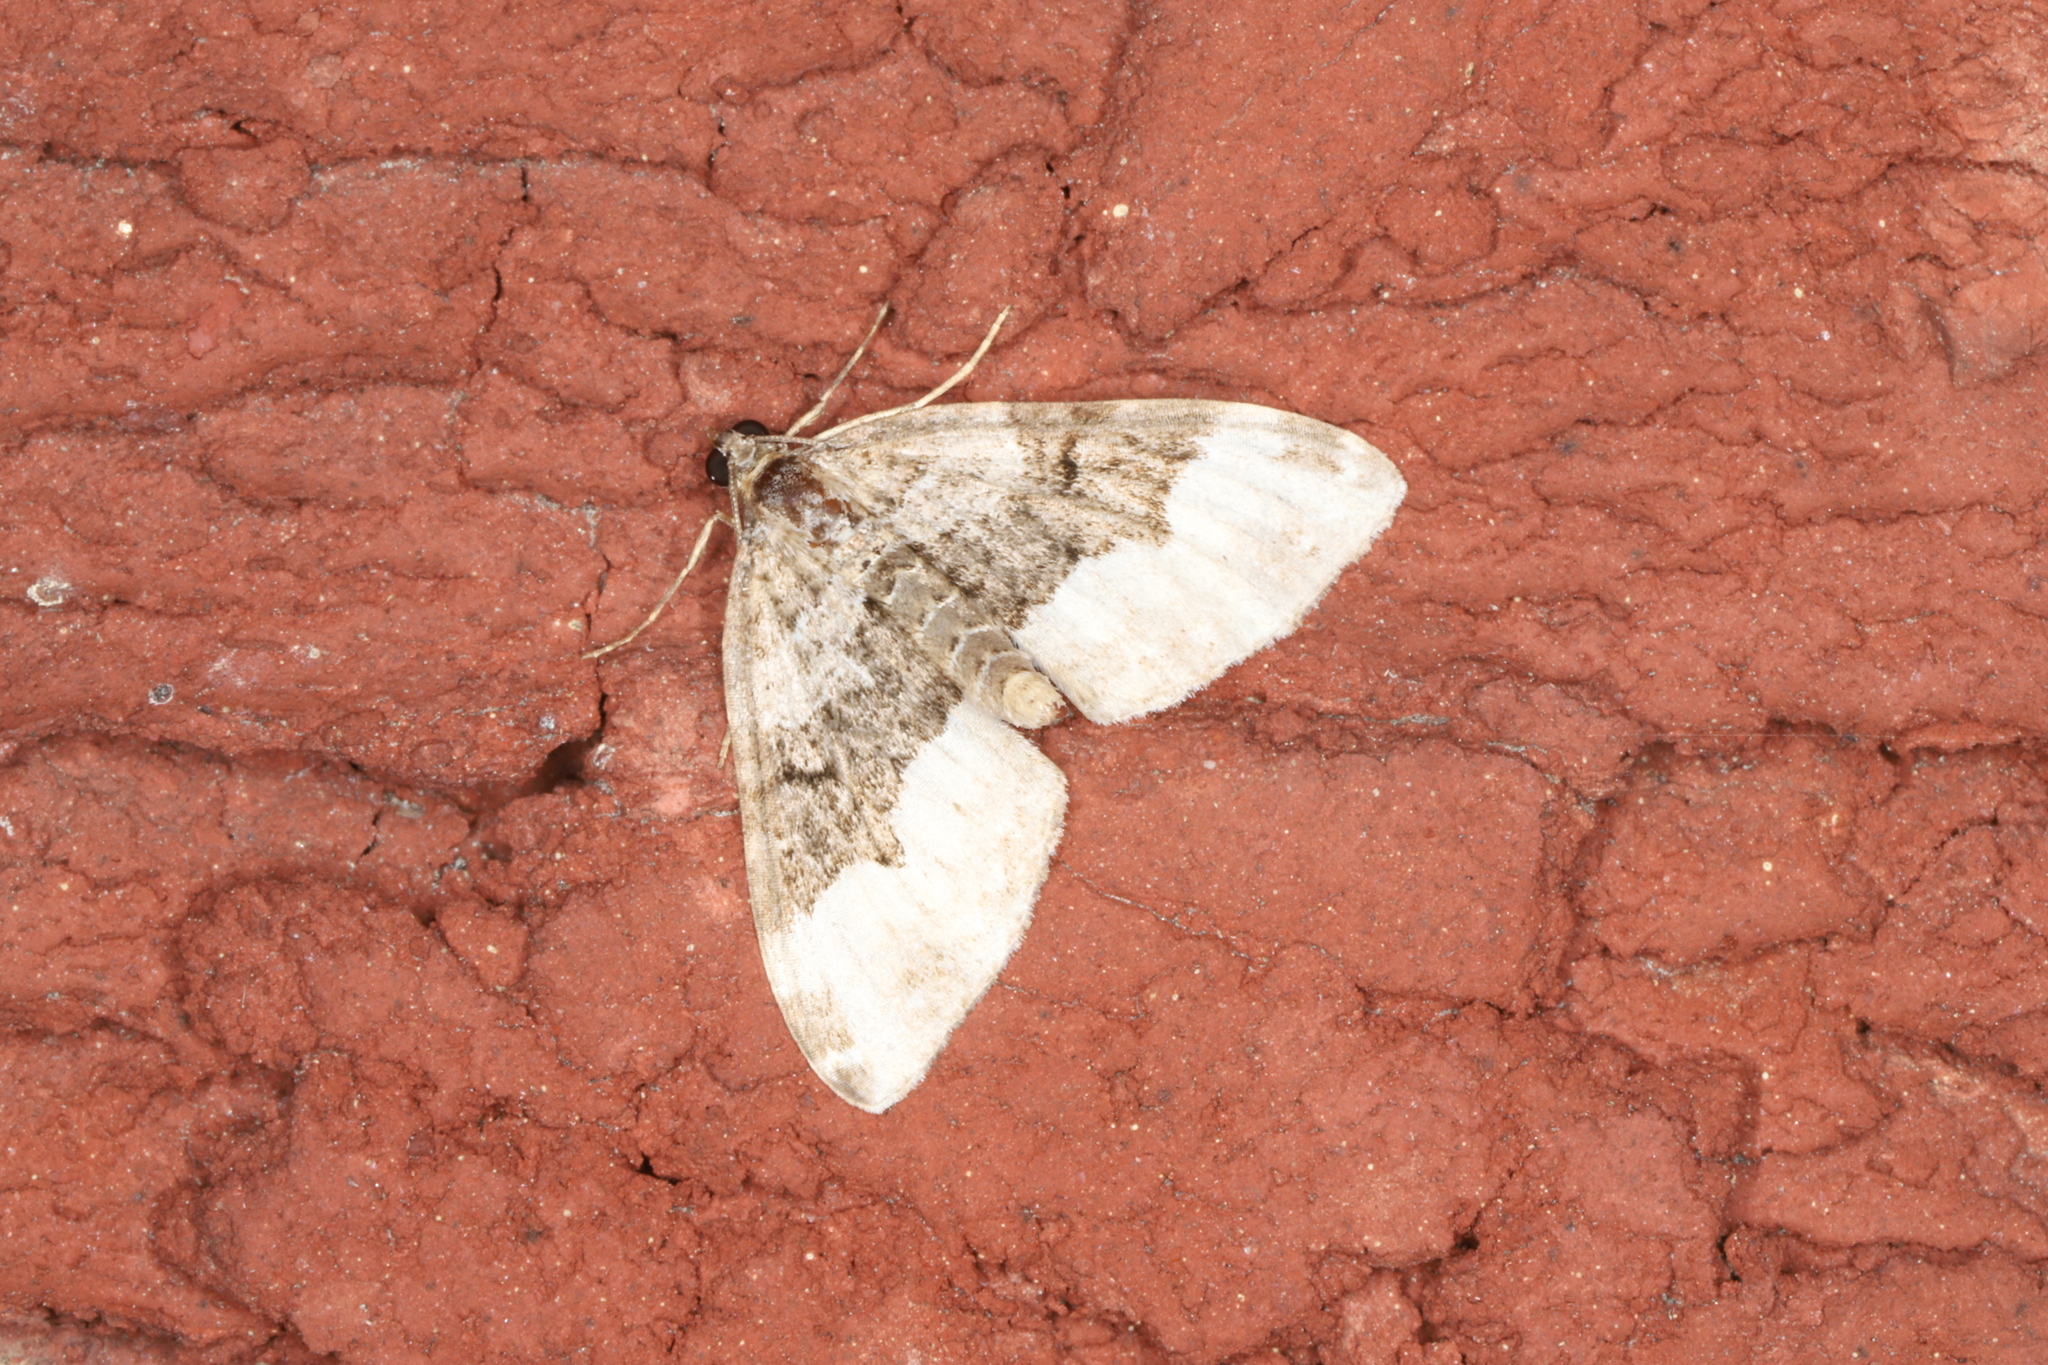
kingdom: Animalia
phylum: Arthropoda
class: Insecta
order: Lepidoptera
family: Geometridae
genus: Euphyia
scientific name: Euphyia intermediata
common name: Sharp-angled carpet
